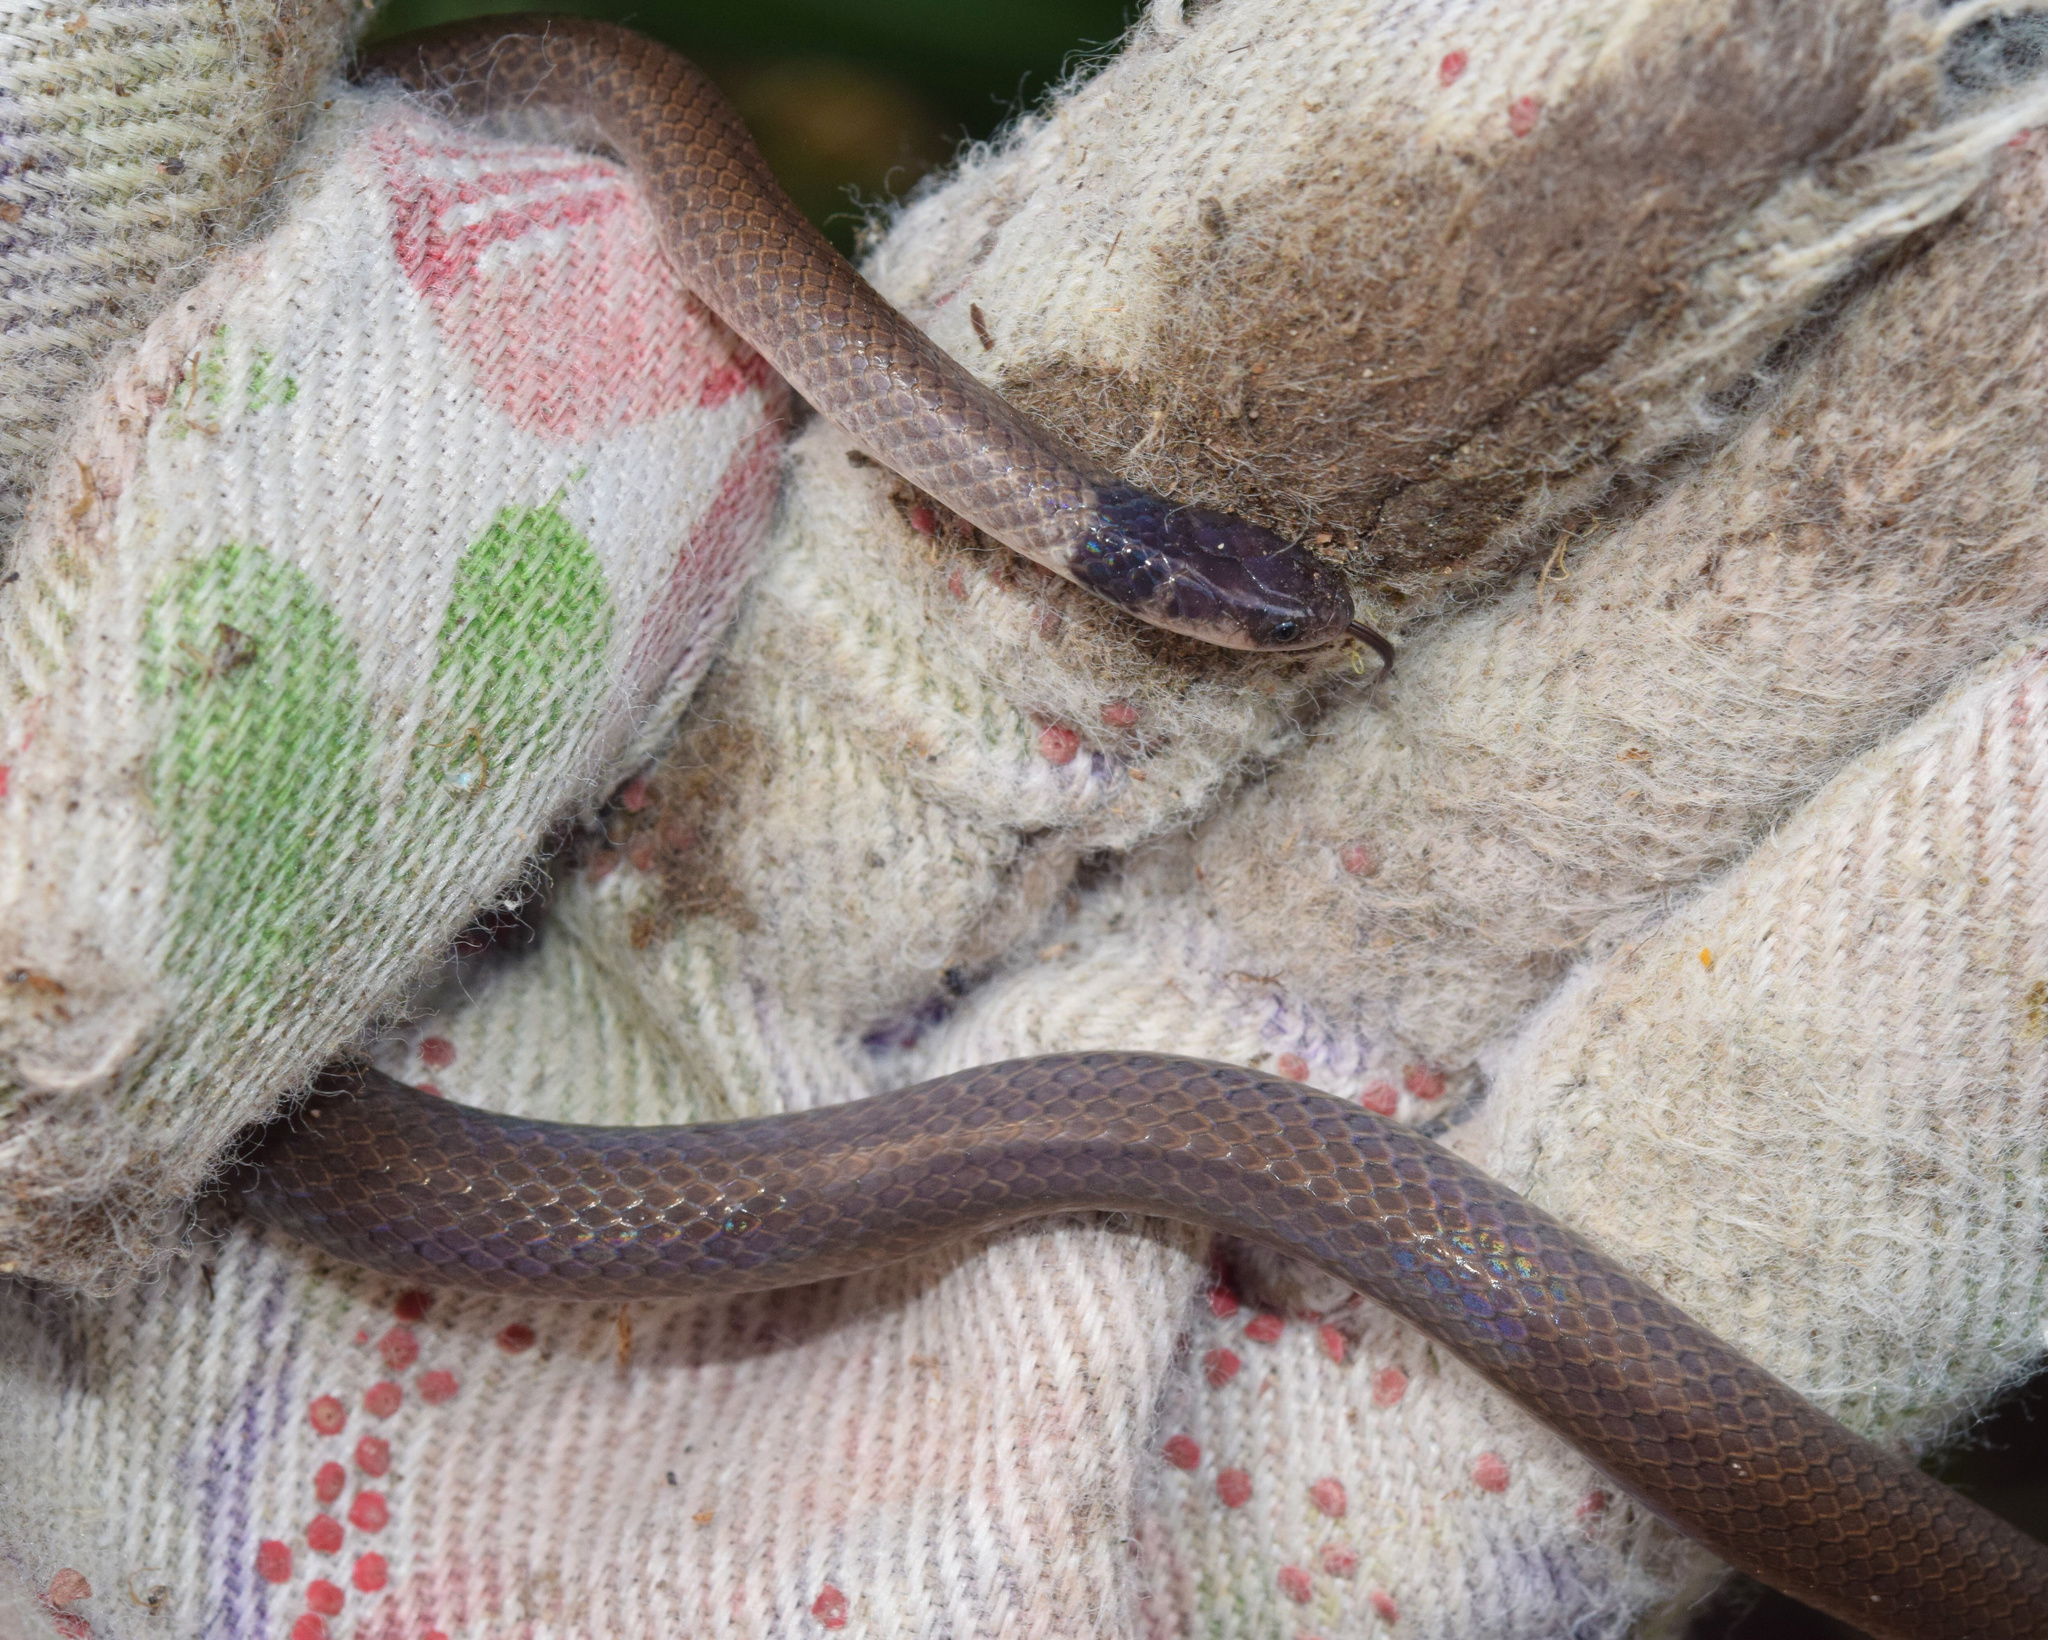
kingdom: Animalia
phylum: Chordata
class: Squamata
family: Atractaspididae
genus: Aparallactus
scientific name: Aparallactus capensis
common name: Cape centipede eater
